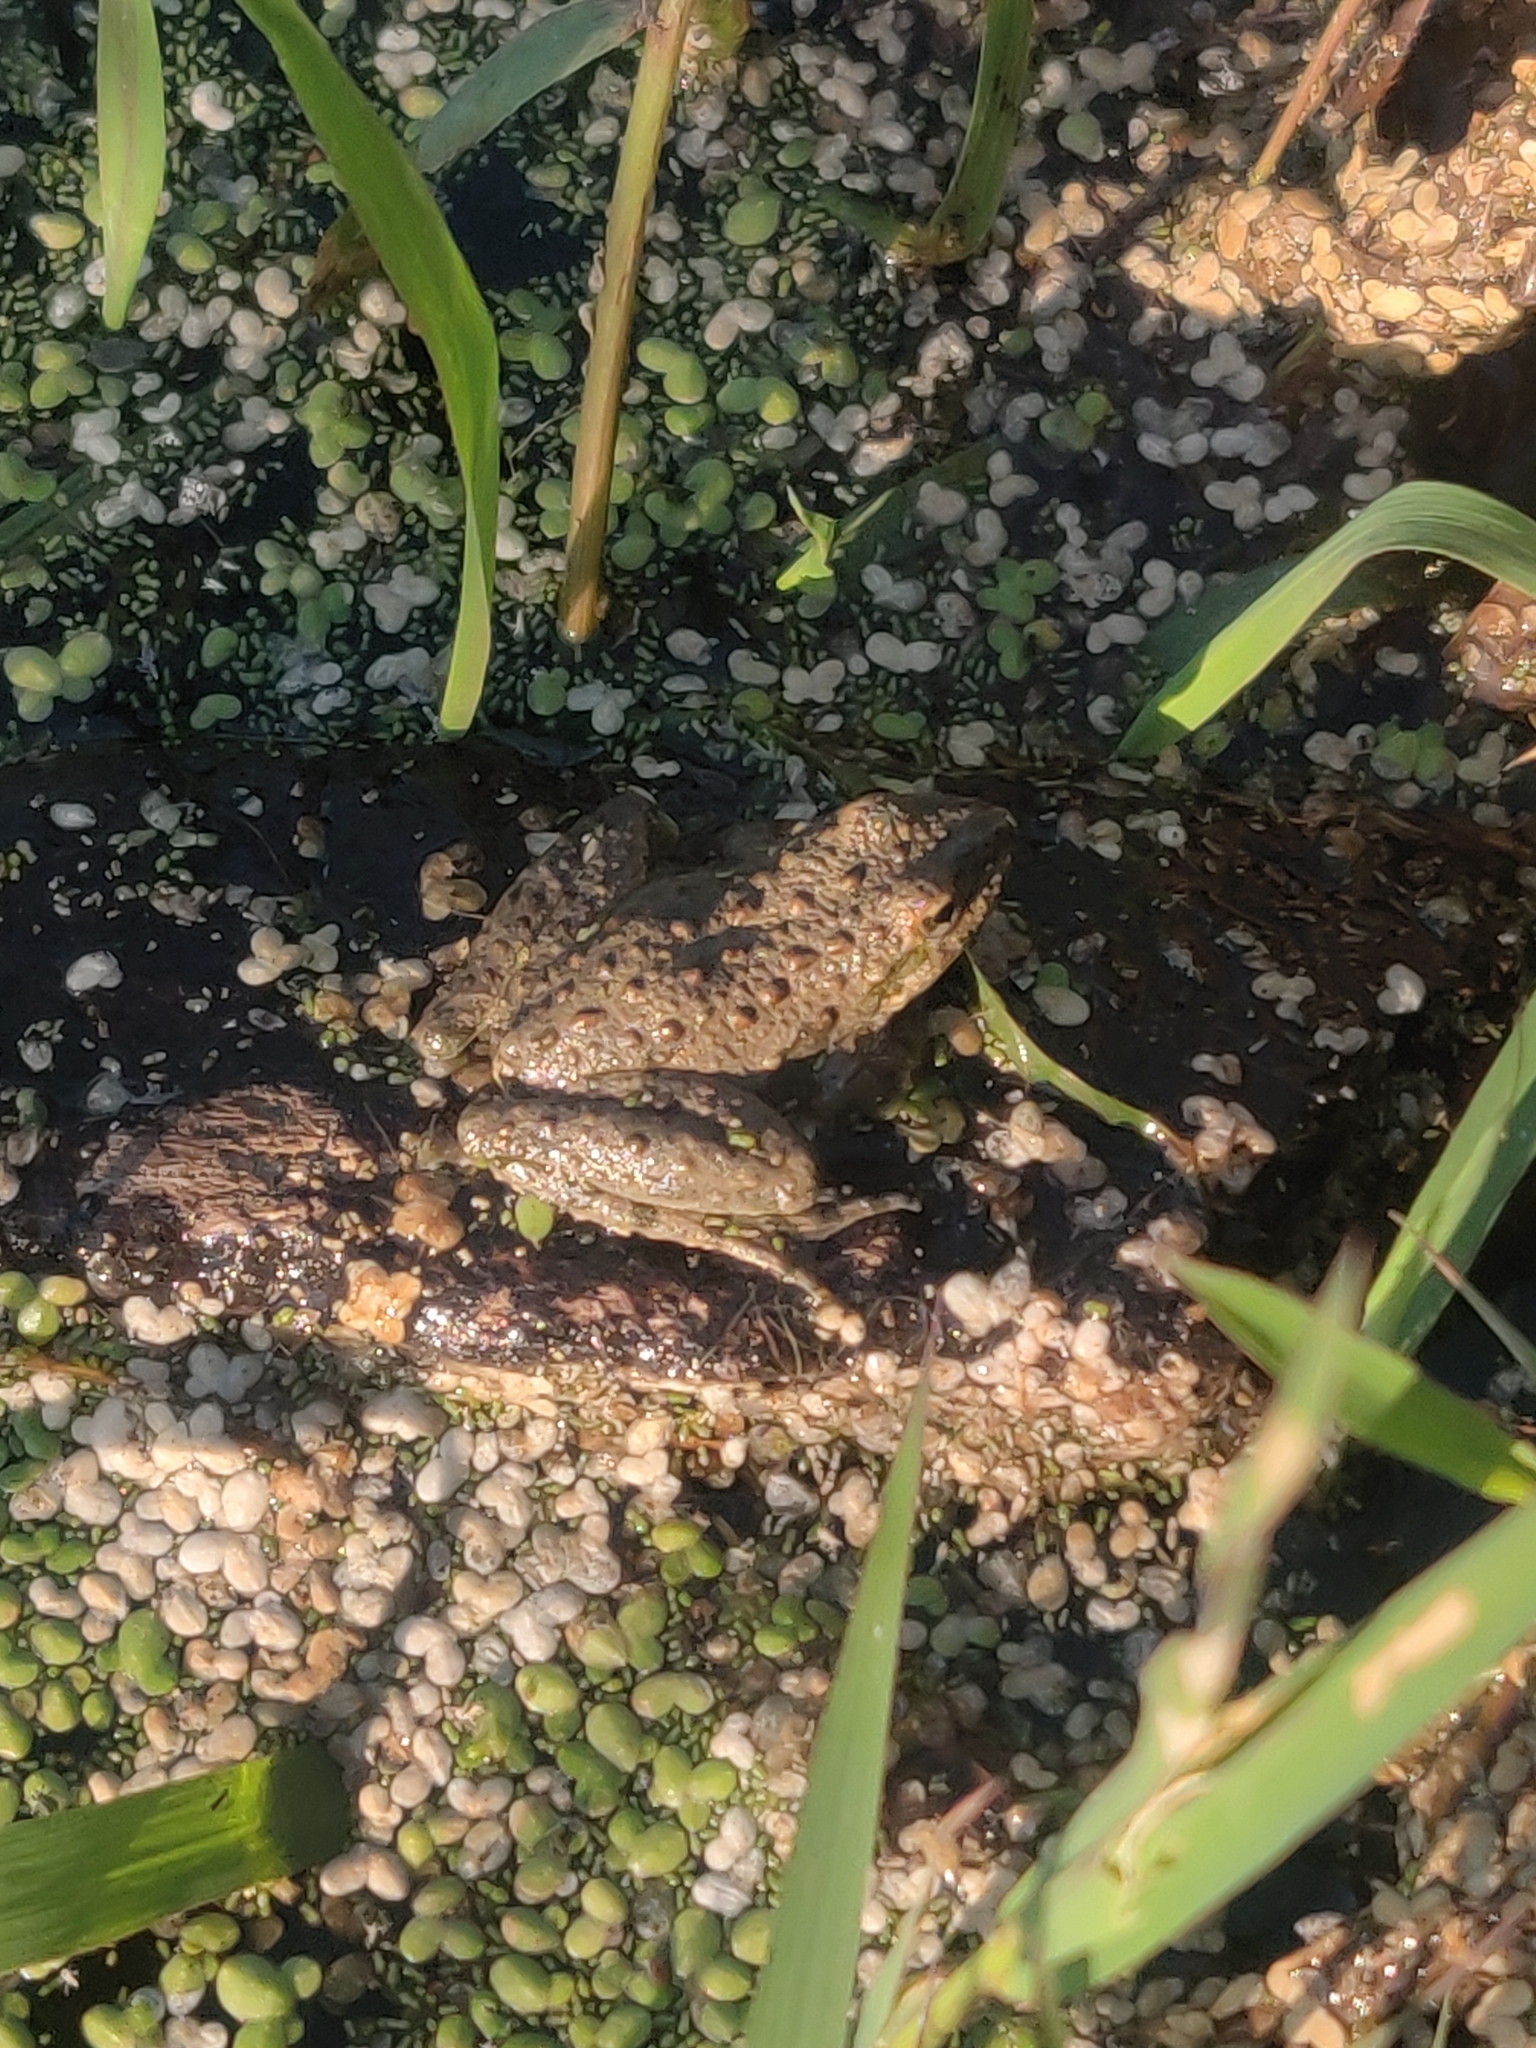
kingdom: Animalia
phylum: Chordata
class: Amphibia
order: Anura
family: Hylidae
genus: Acris
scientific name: Acris blanchardi
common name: Blanchard's cricket frog
